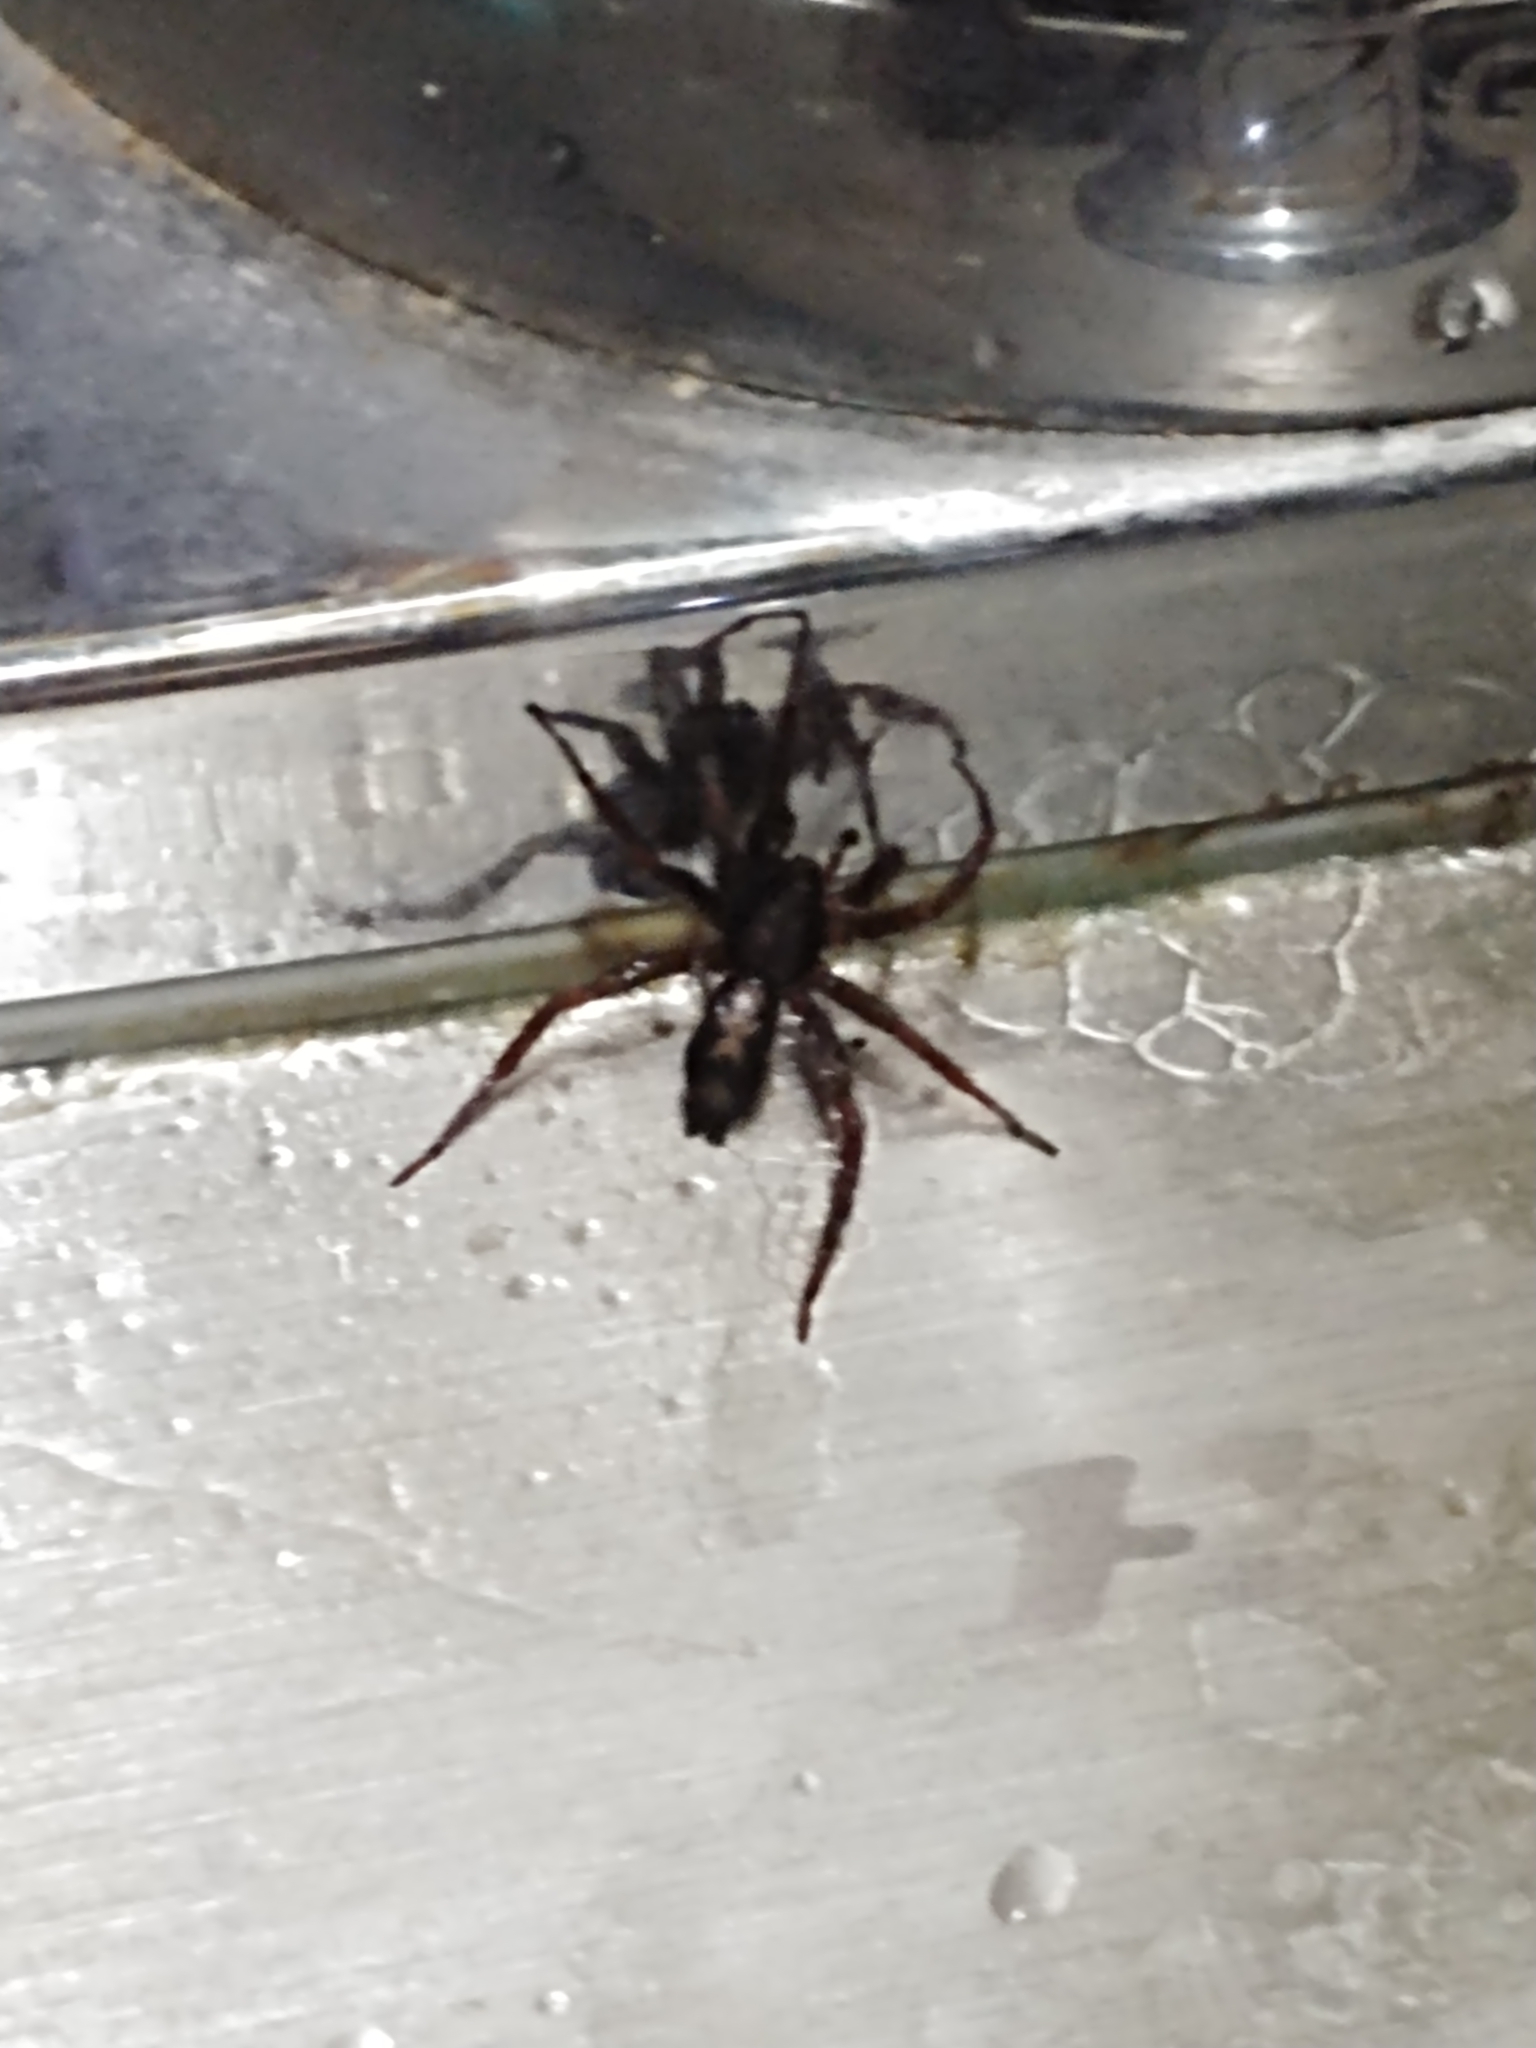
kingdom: Animalia
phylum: Arthropoda
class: Arachnida
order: Araneae
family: Gnaphosidae
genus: Herpyllus
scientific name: Herpyllus ecclesiasticus
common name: Eastern parson spider
